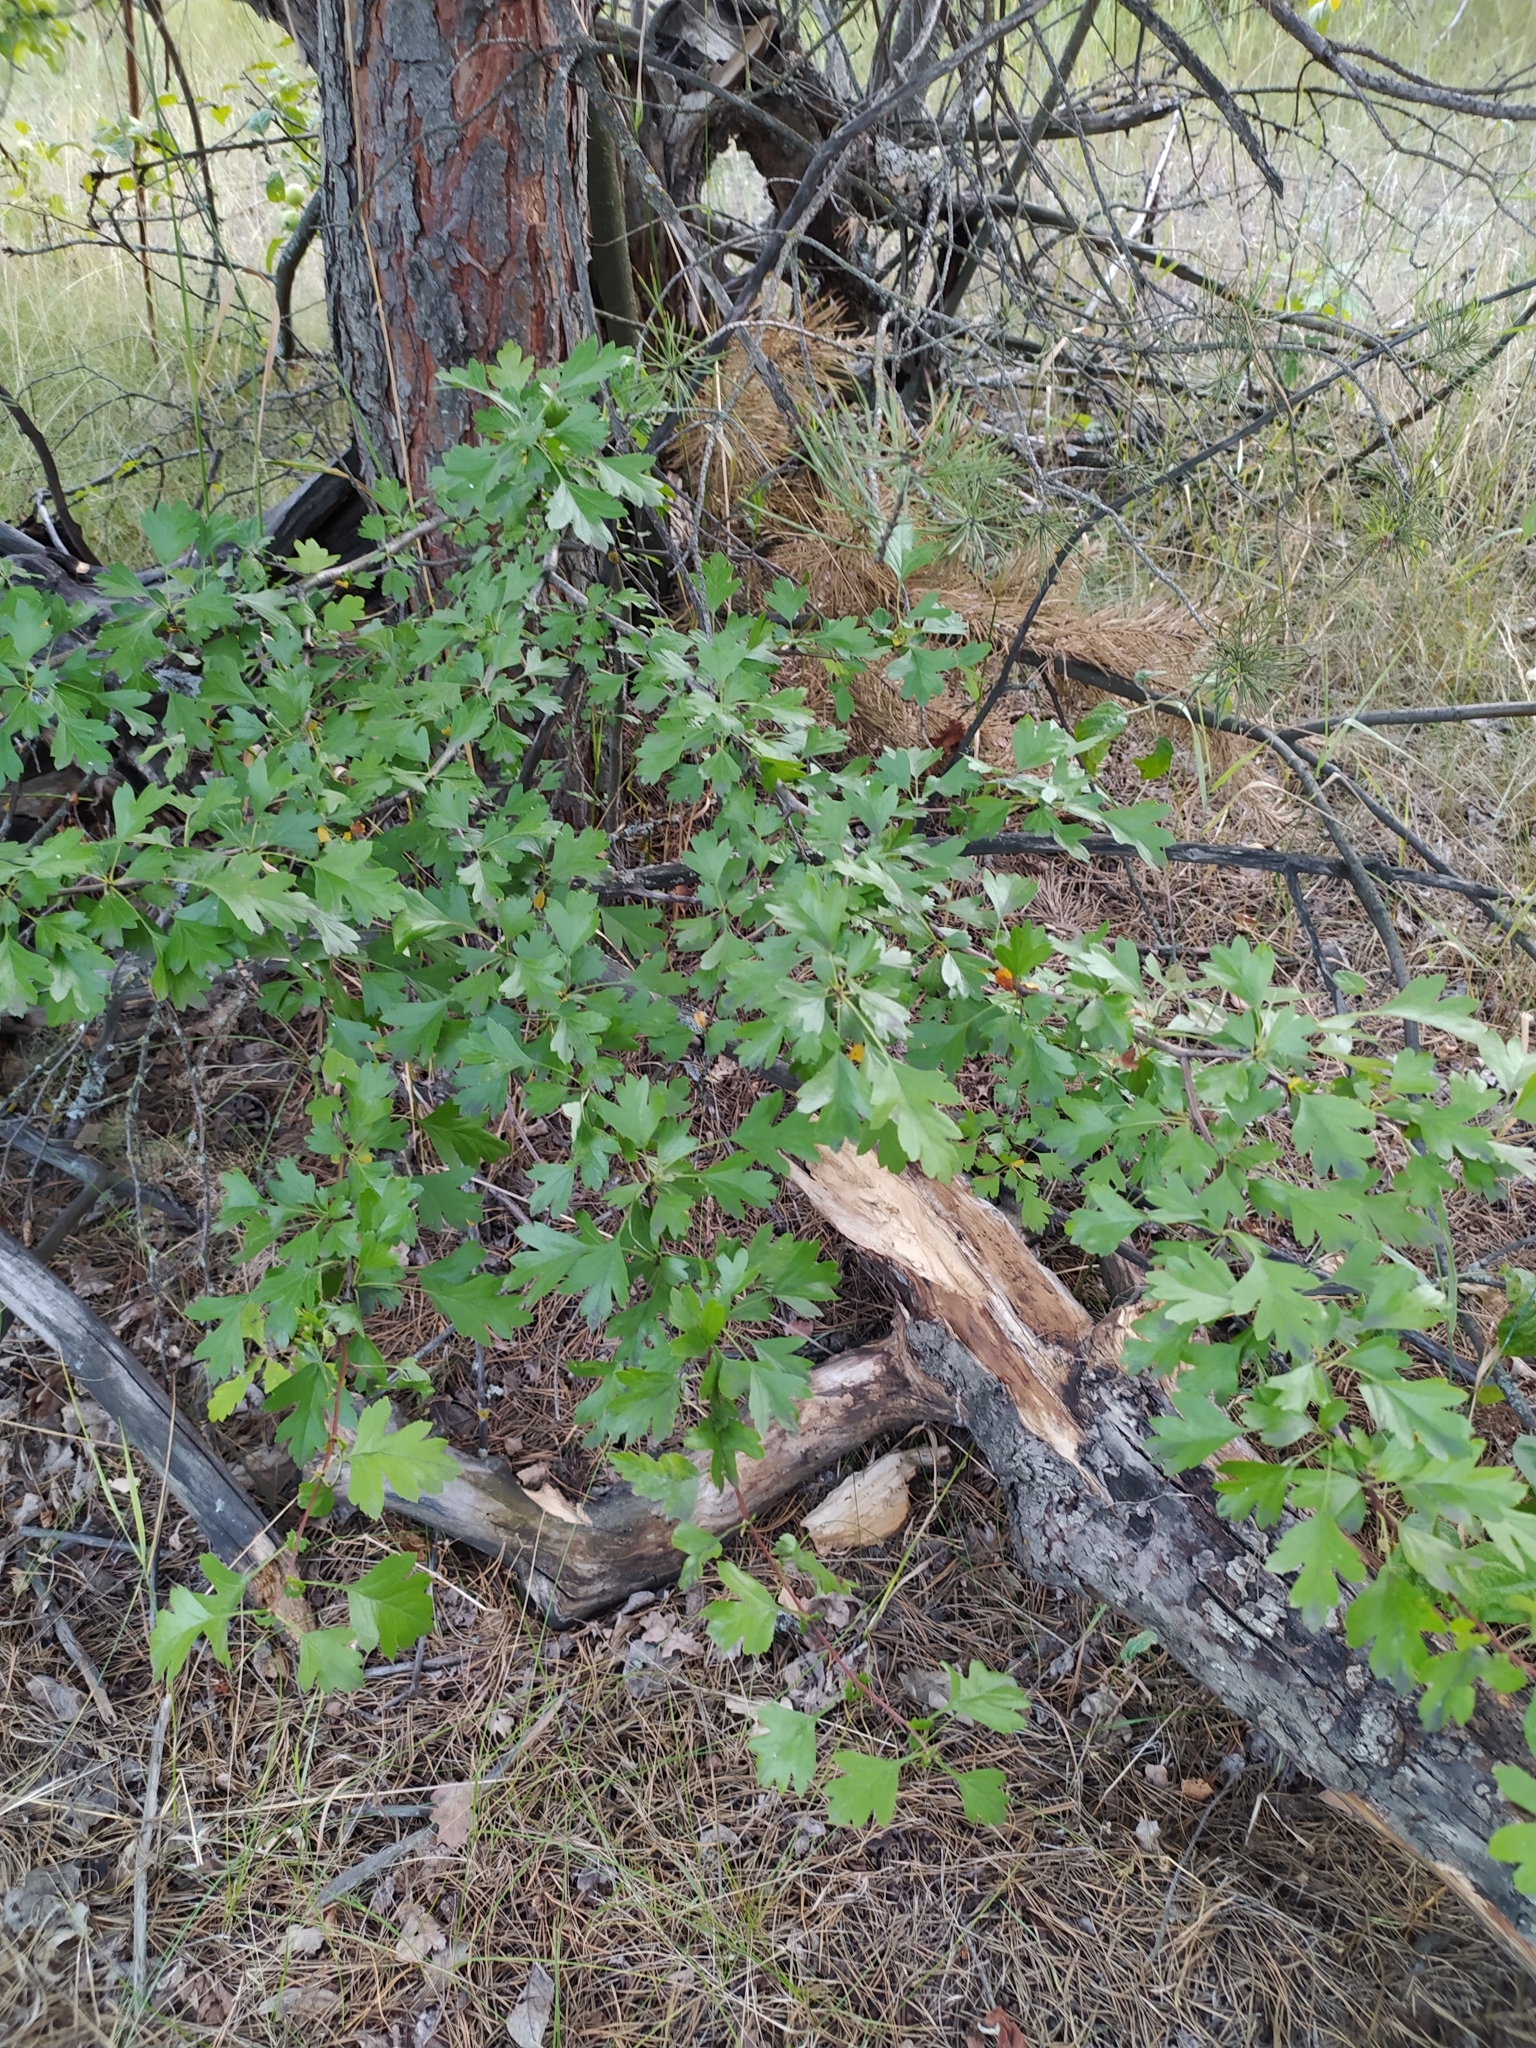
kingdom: Plantae
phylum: Tracheophyta
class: Magnoliopsida
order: Rosales
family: Rosaceae
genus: Crataegus
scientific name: Crataegus monogyna
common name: Hawthorn
